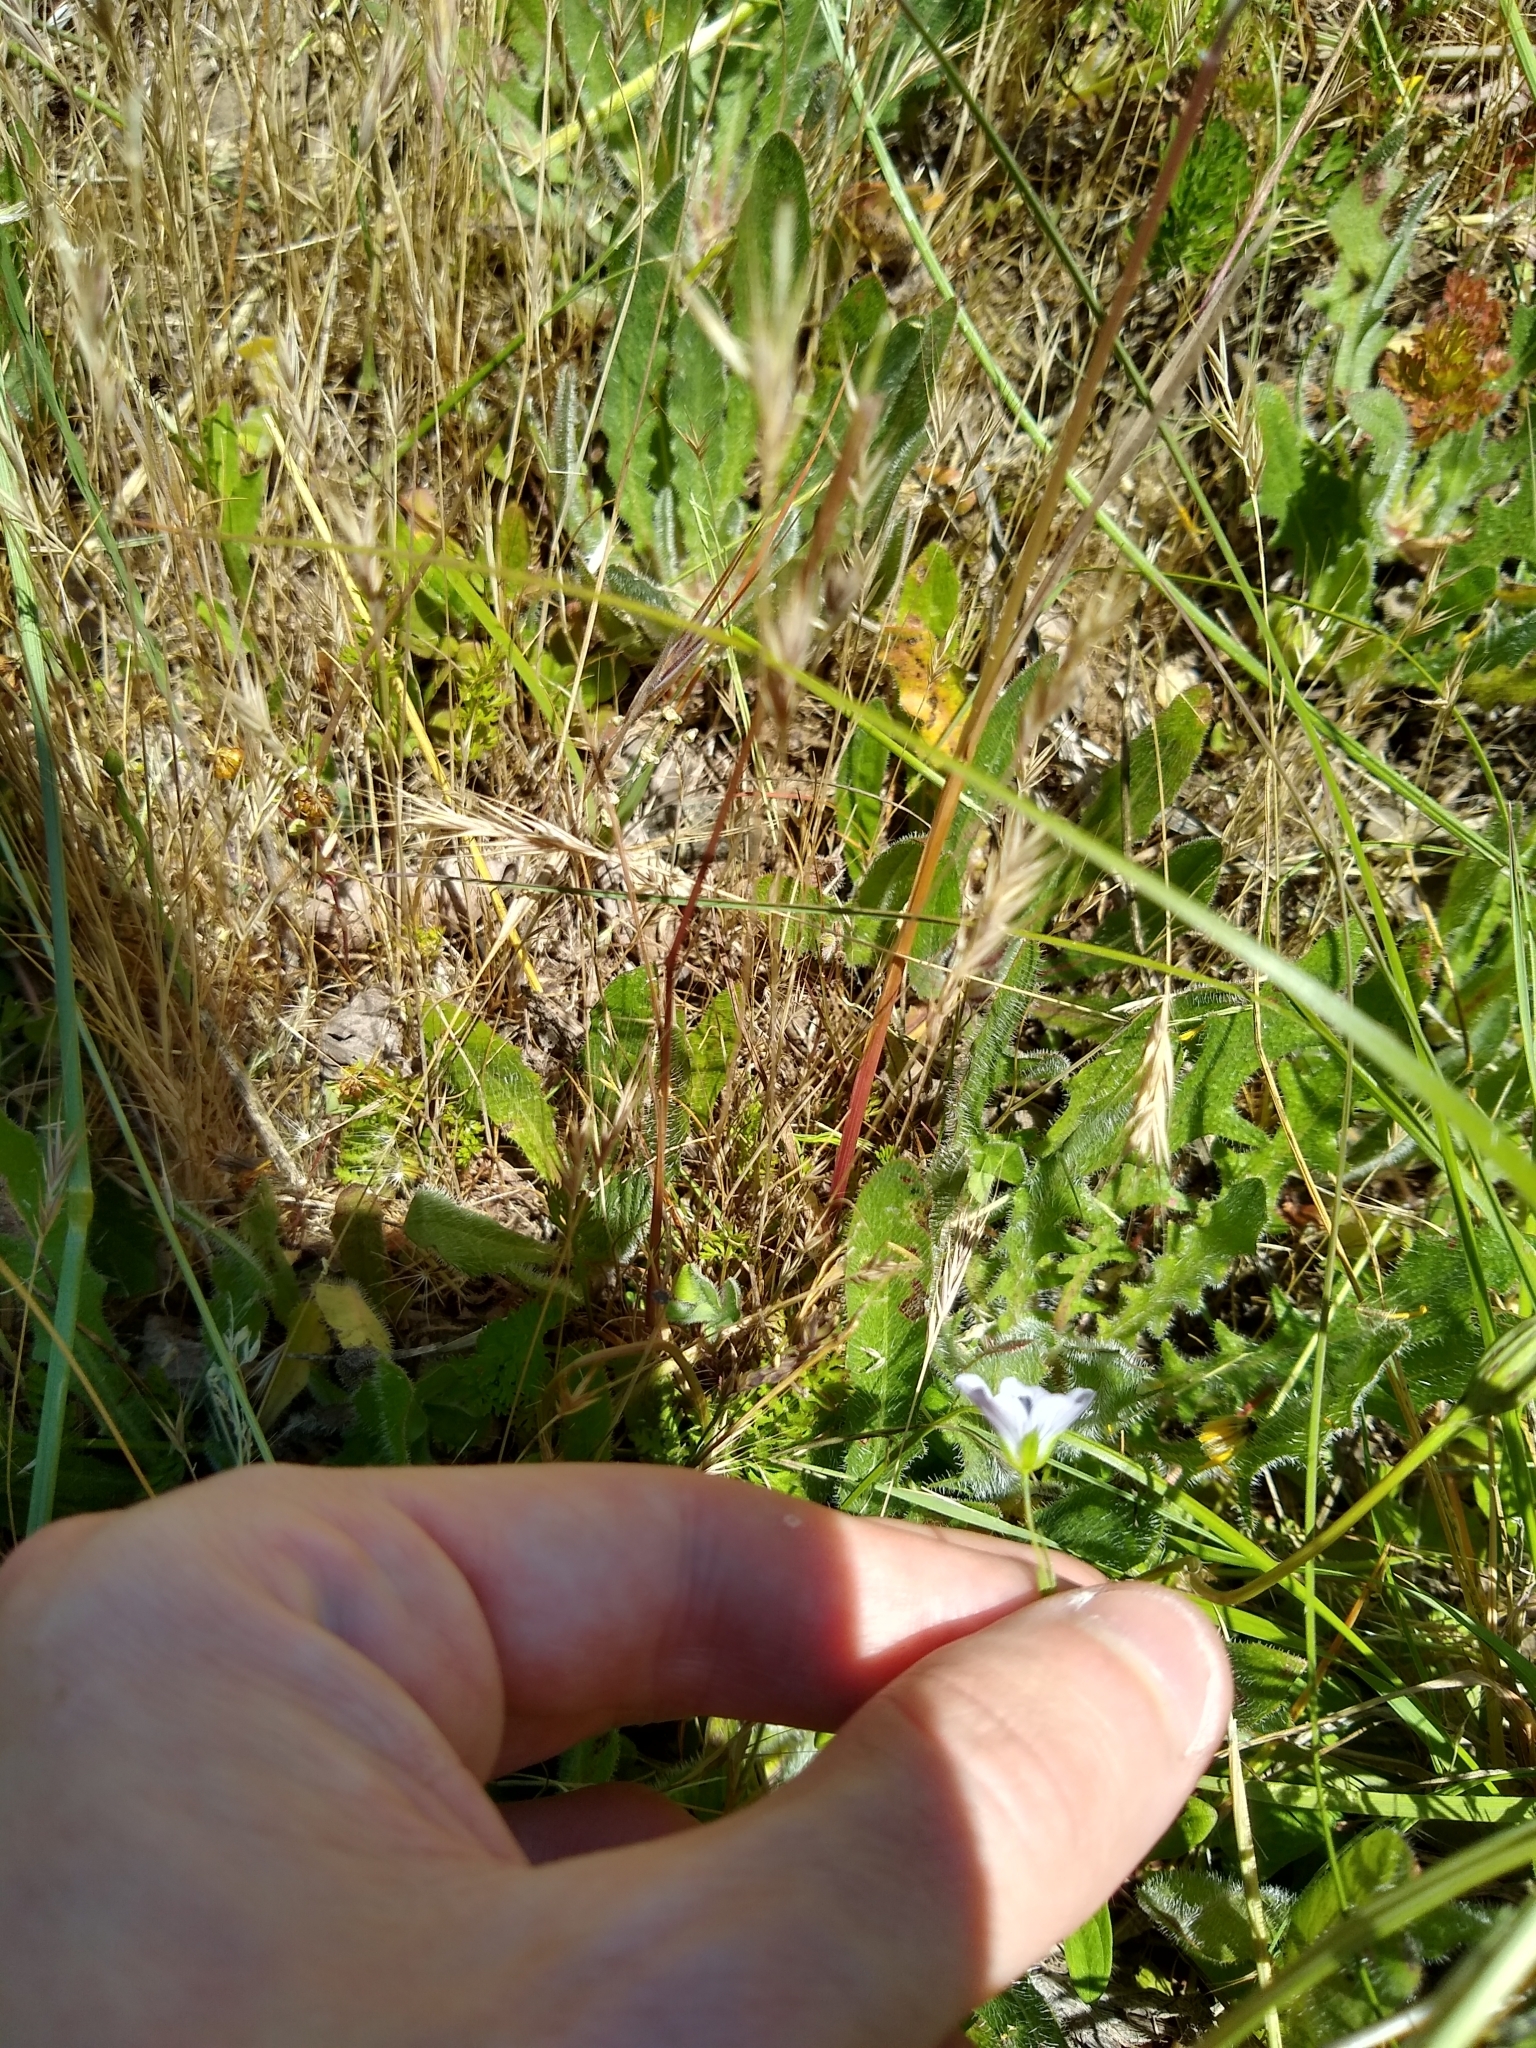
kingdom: Plantae
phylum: Tracheophyta
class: Magnoliopsida
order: Malpighiales
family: Linaceae
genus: Linum
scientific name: Linum bienne
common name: Pale flax
